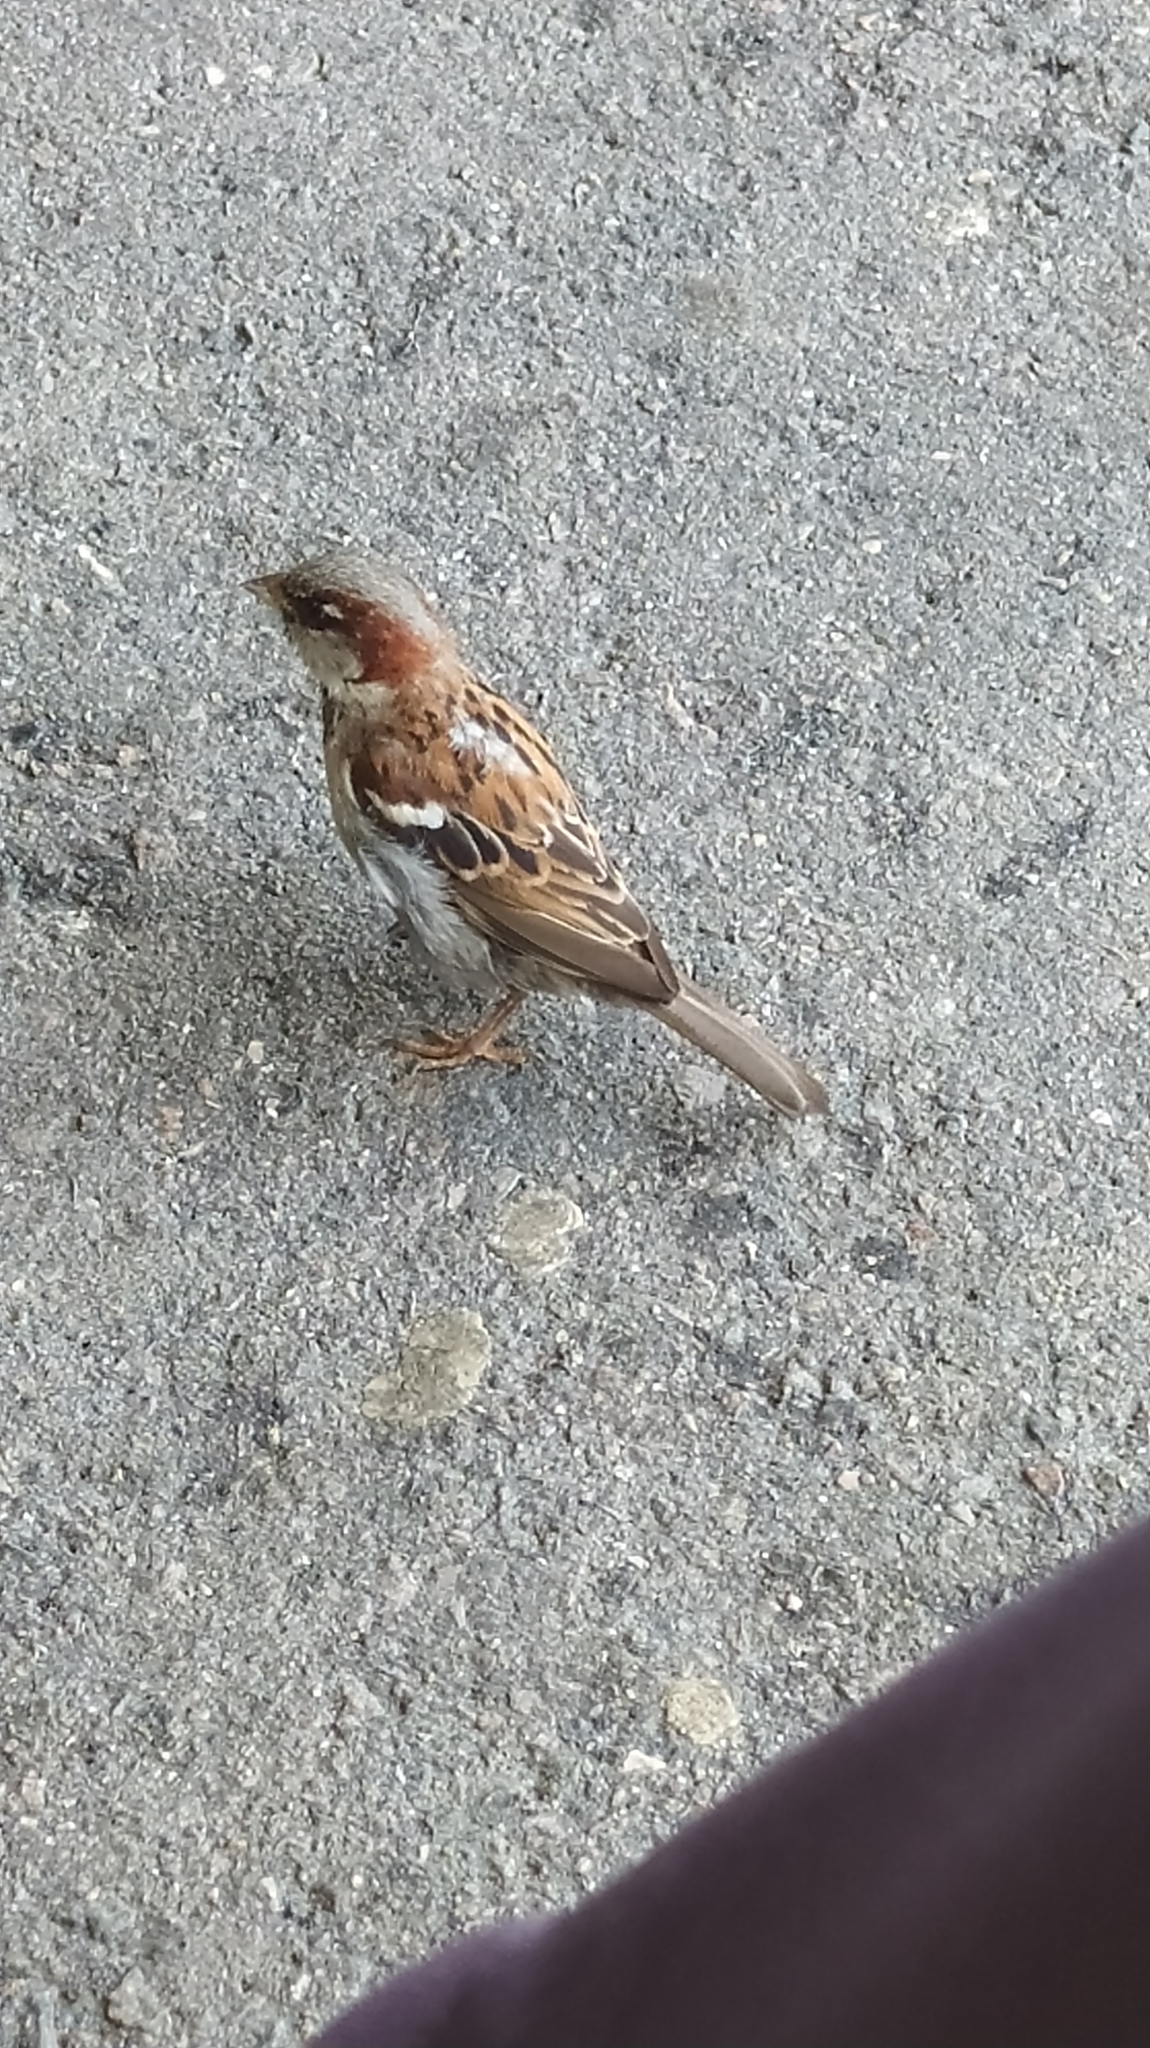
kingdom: Animalia
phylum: Chordata
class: Aves
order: Passeriformes
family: Passeridae
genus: Passer
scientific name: Passer domesticus
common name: House sparrow
